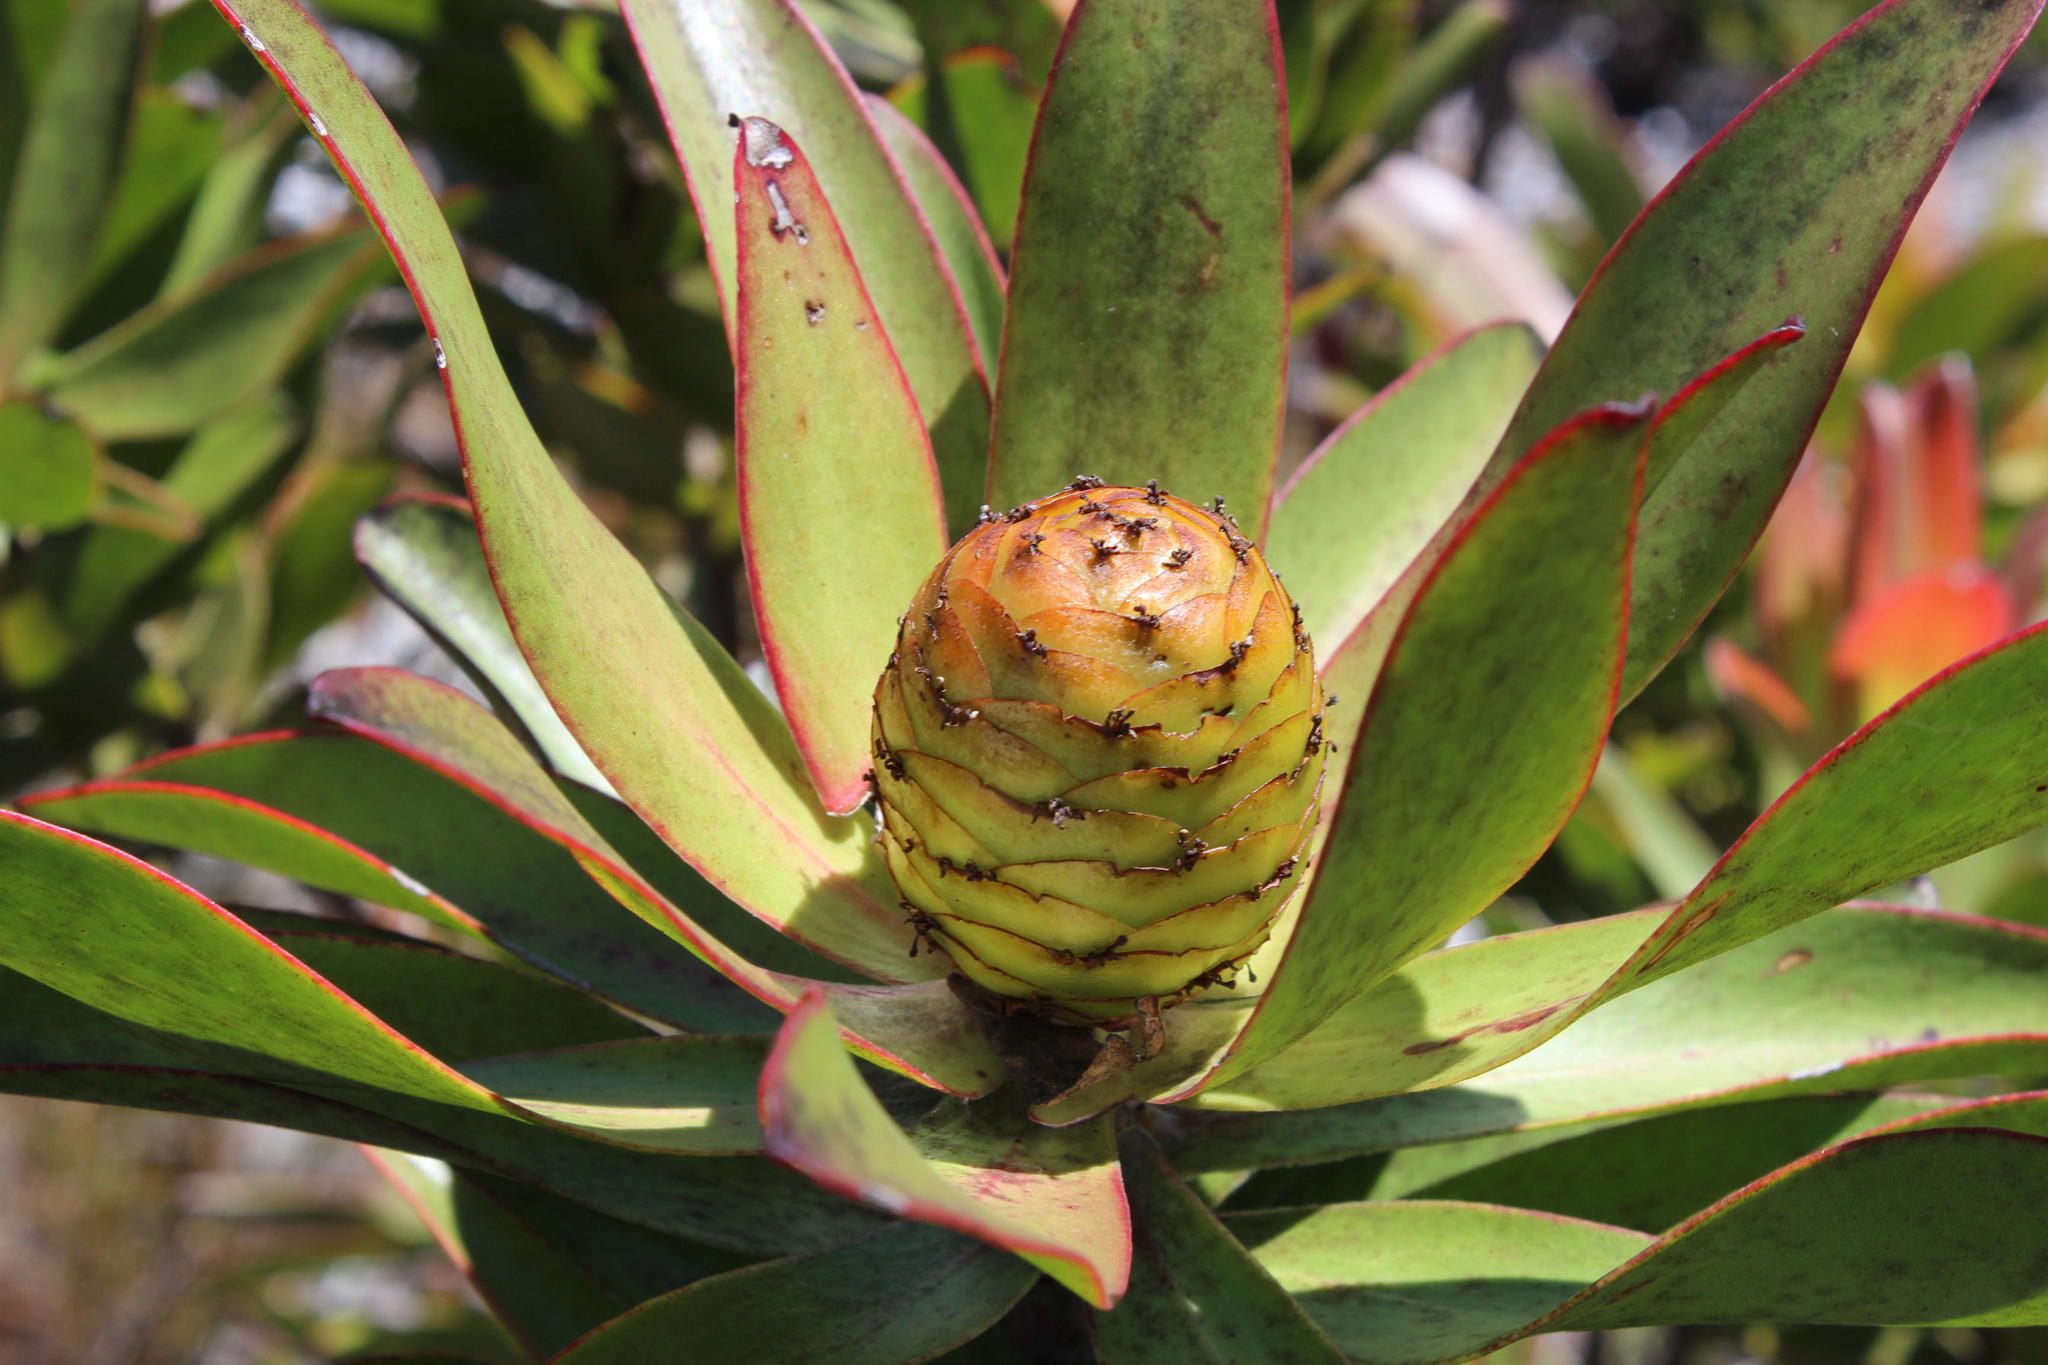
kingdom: Plantae
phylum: Tracheophyta
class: Magnoliopsida
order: Proteales
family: Proteaceae
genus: Leucadendron
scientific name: Leucadendron gandogeri
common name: Broad-leaf conebush
